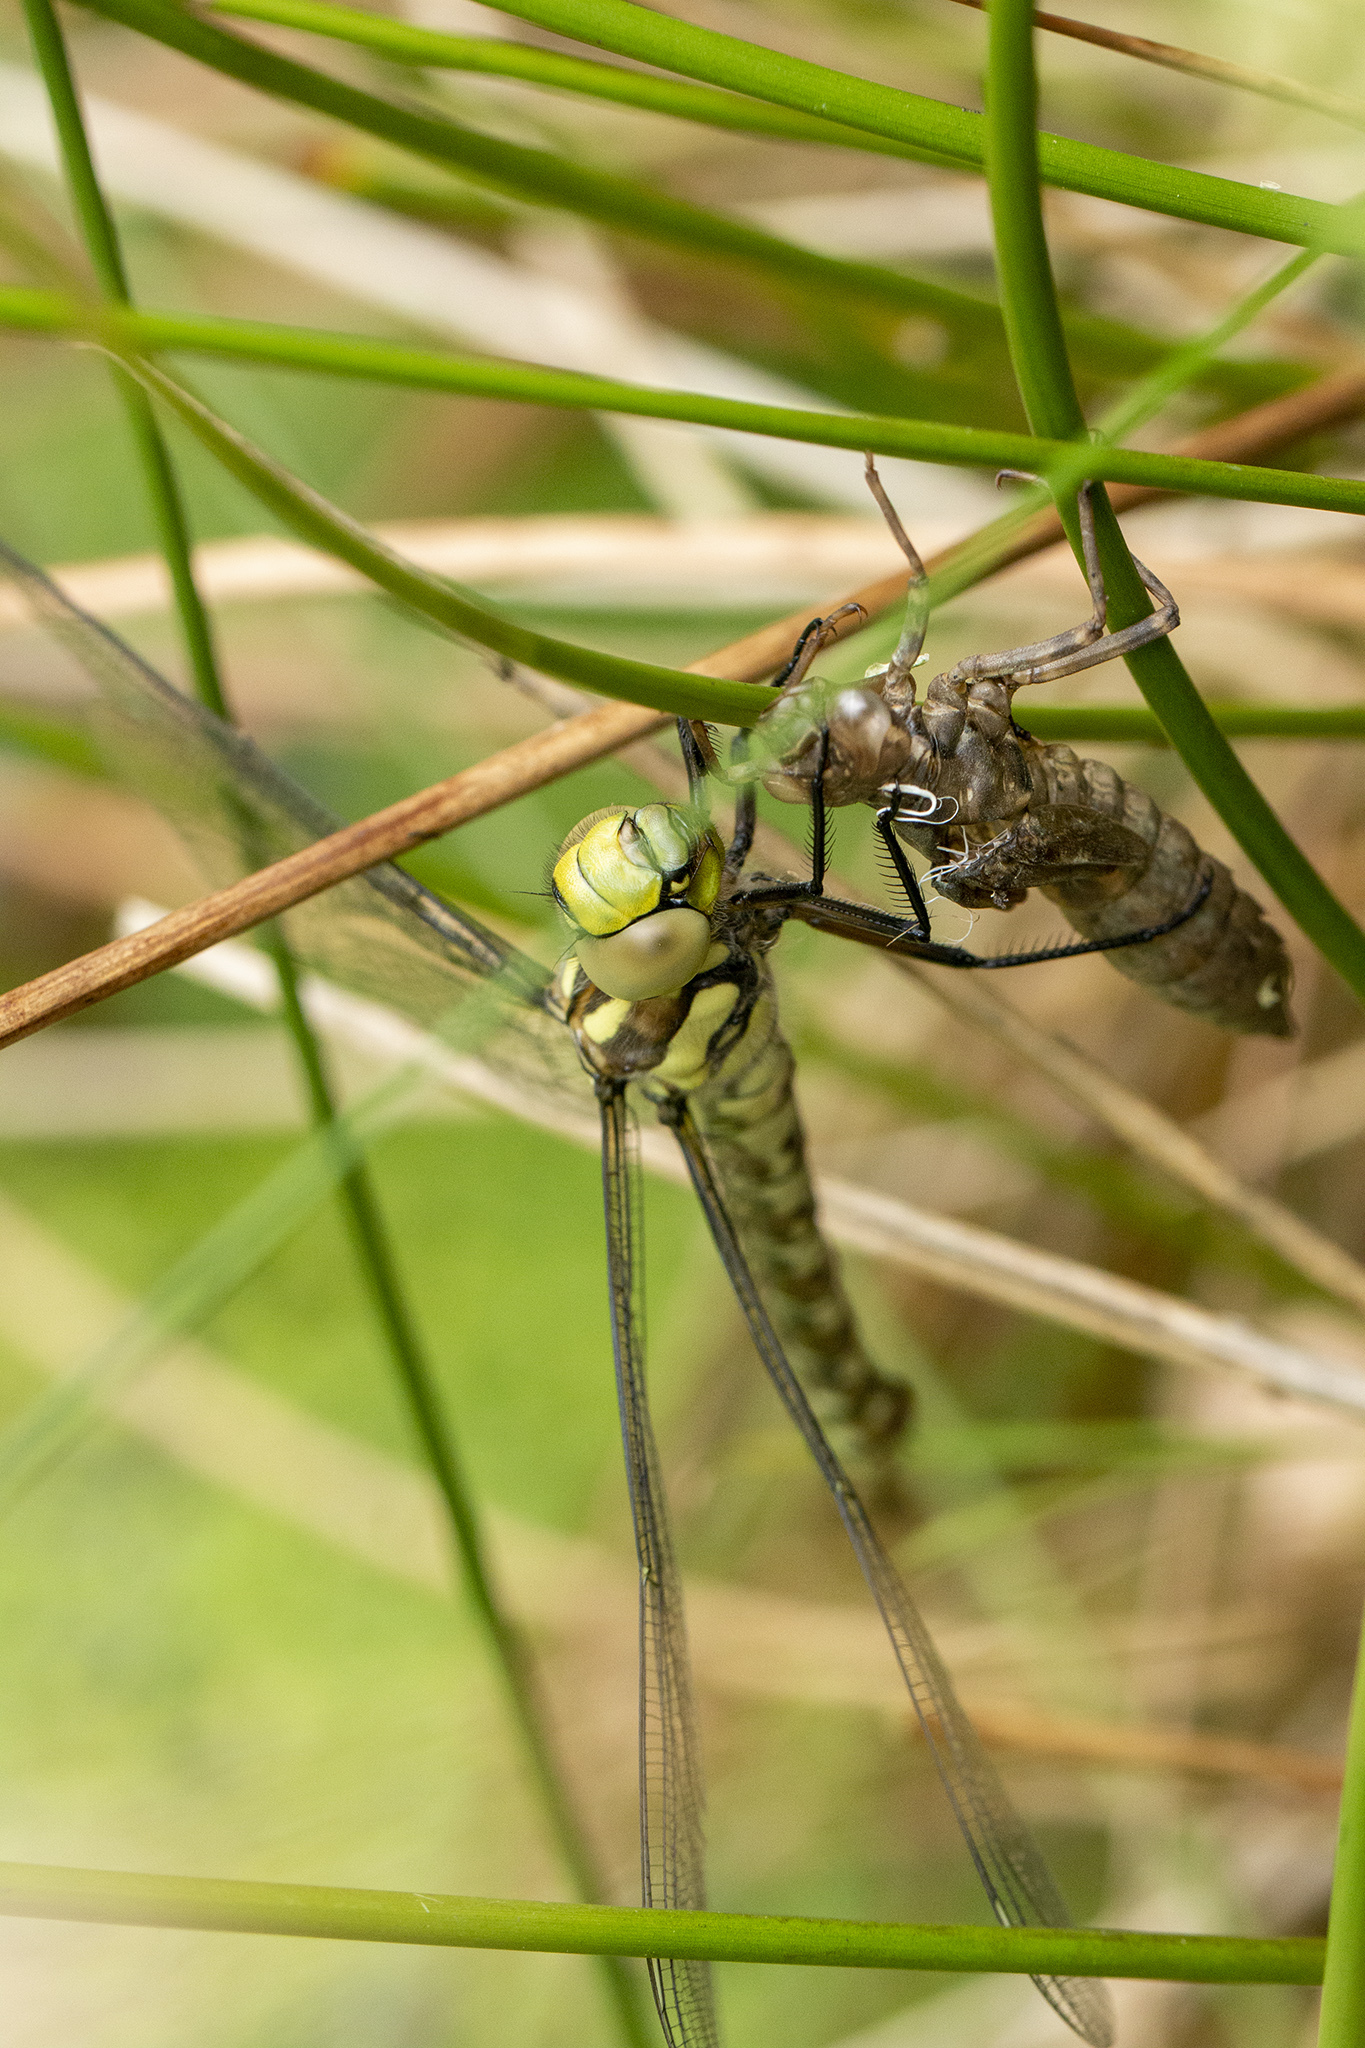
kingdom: Animalia
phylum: Arthropoda
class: Insecta
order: Odonata
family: Aeshnidae
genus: Aeshna
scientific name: Aeshna cyanea
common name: Southern hawker
